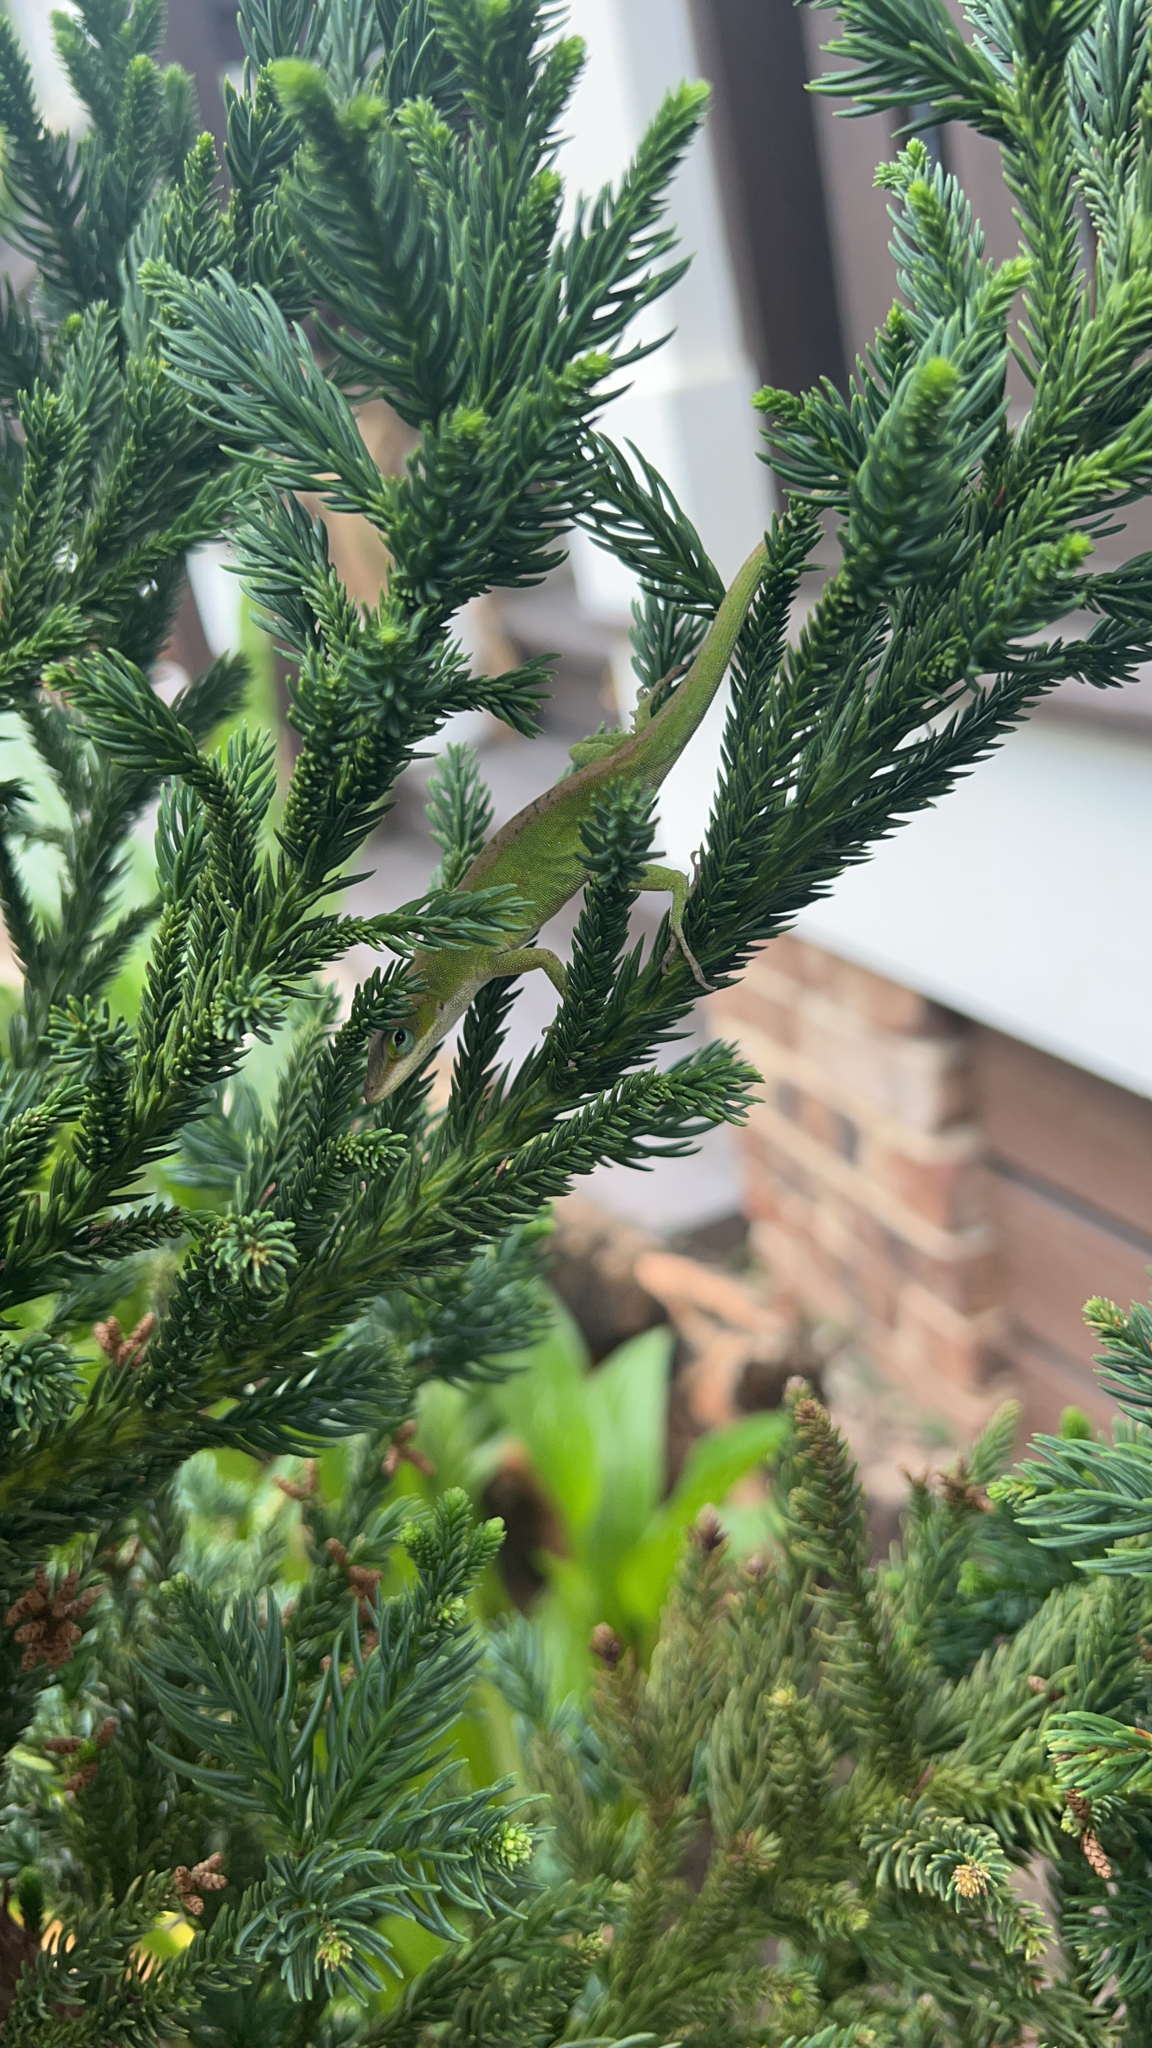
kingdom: Animalia
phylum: Chordata
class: Squamata
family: Dactyloidae
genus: Anolis
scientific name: Anolis carolinensis
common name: Green anole
